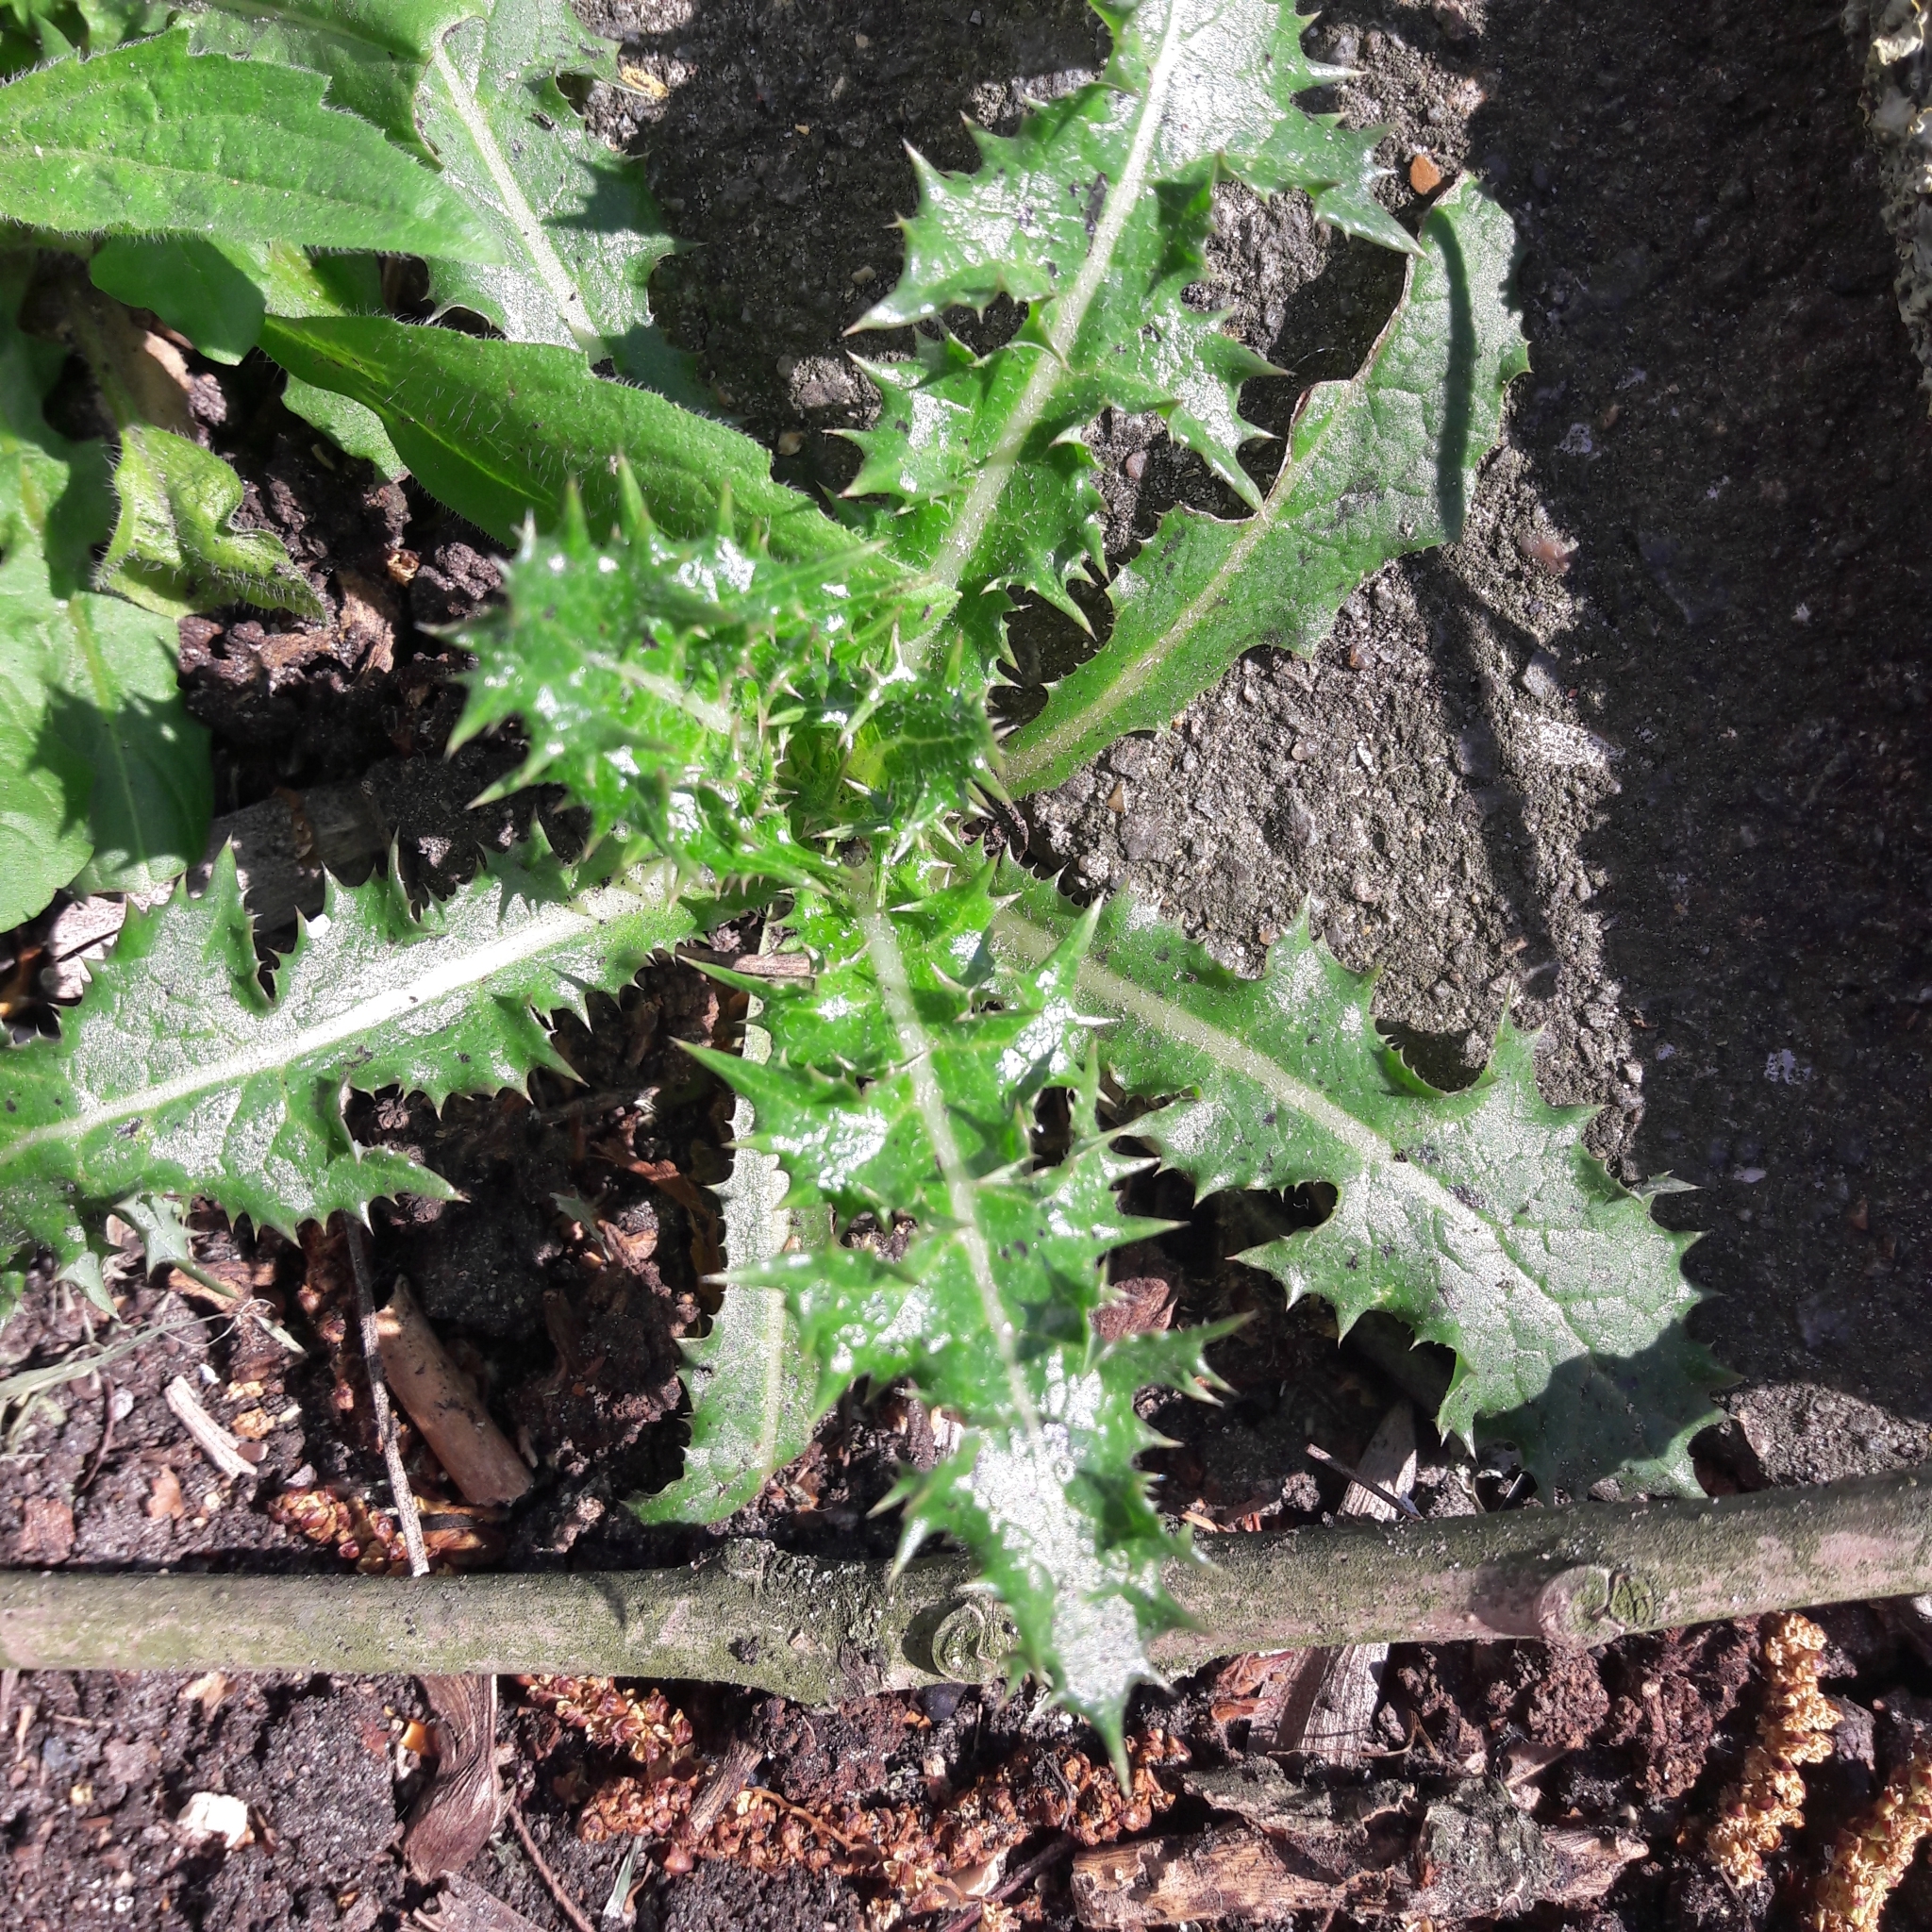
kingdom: Plantae
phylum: Tracheophyta
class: Magnoliopsida
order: Asterales
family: Asteraceae
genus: Sonchus
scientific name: Sonchus asper
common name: Prickly sow-thistle
